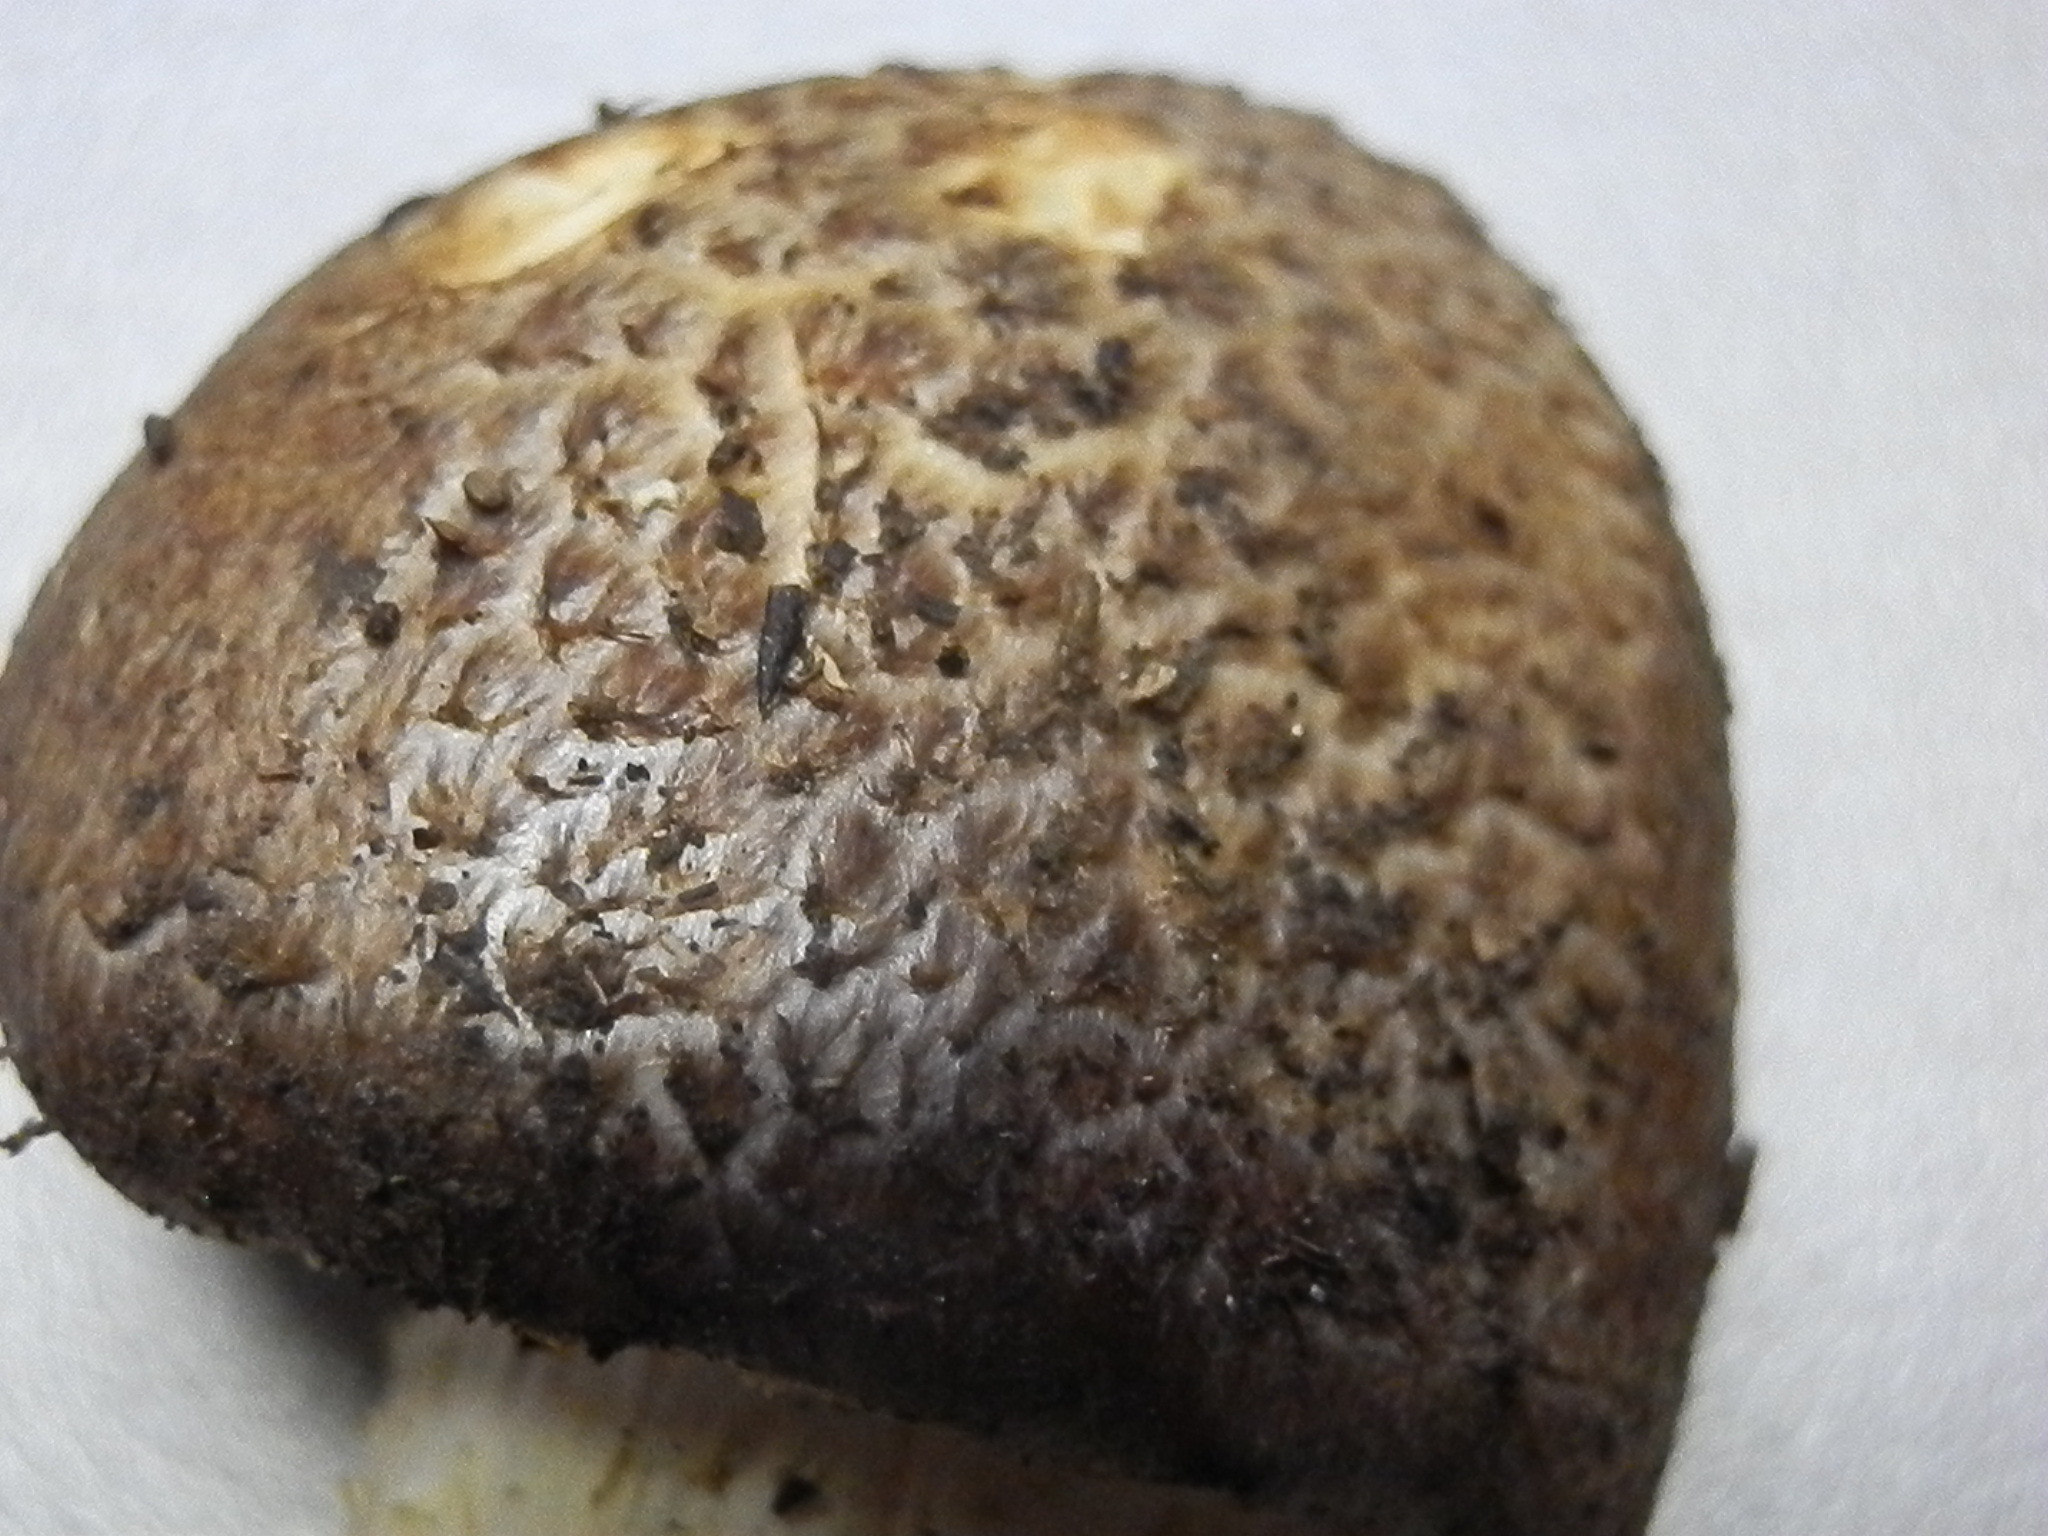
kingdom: Fungi
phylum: Basidiomycota
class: Agaricomycetes
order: Agaricales
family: Strophariaceae
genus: Stropharia
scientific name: Stropharia scabella
